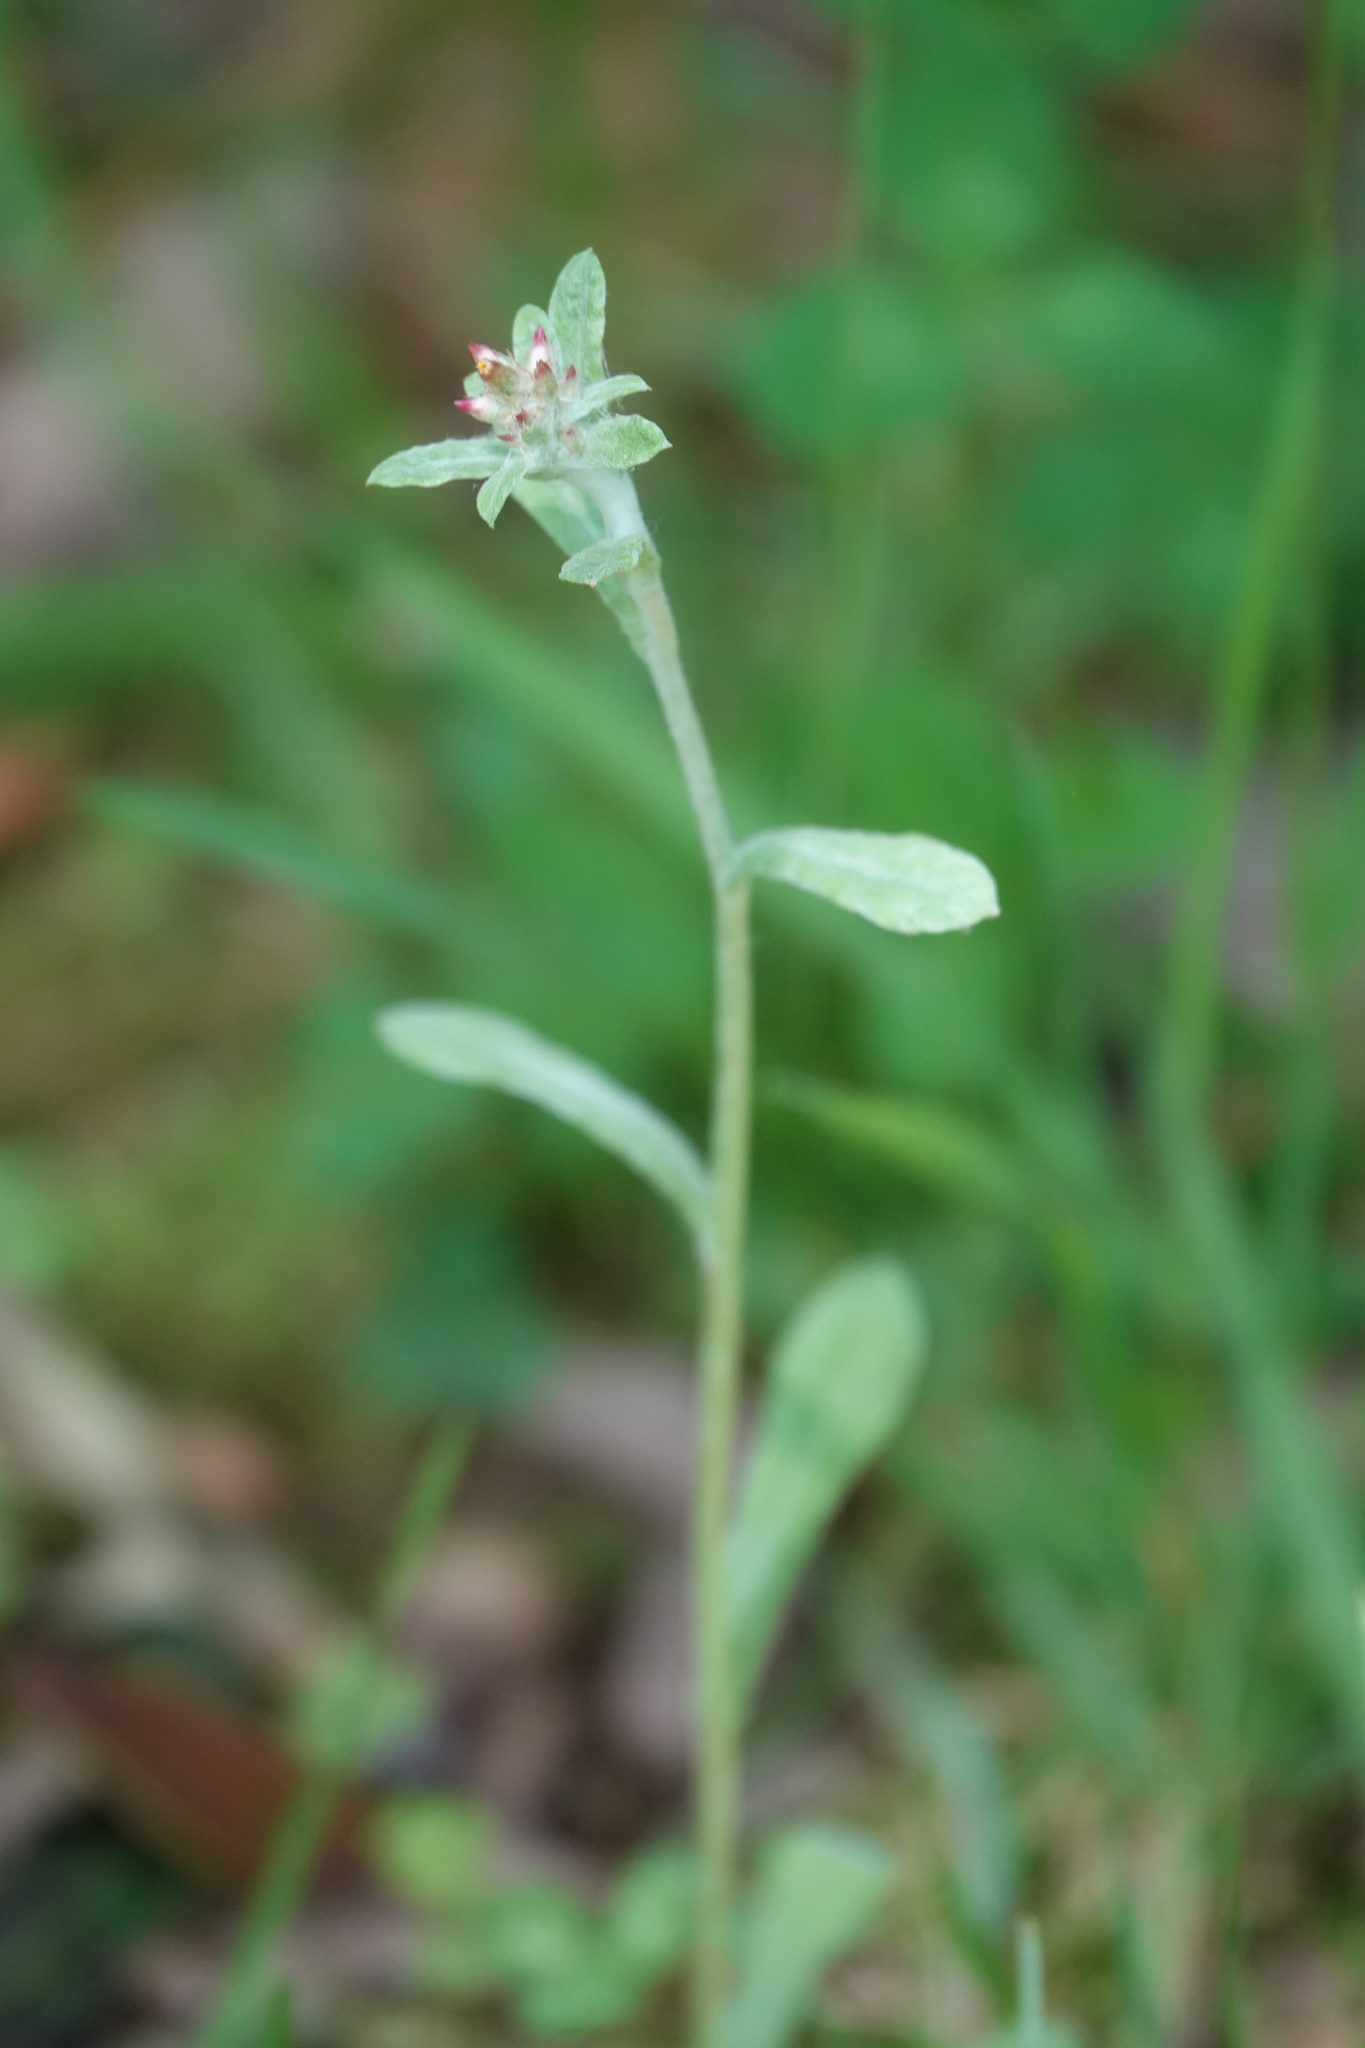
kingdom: Plantae
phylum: Tracheophyta
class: Magnoliopsida
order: Asterales
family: Asteraceae
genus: Gamochaeta
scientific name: Gamochaeta purpurea
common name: Purple cudweed
